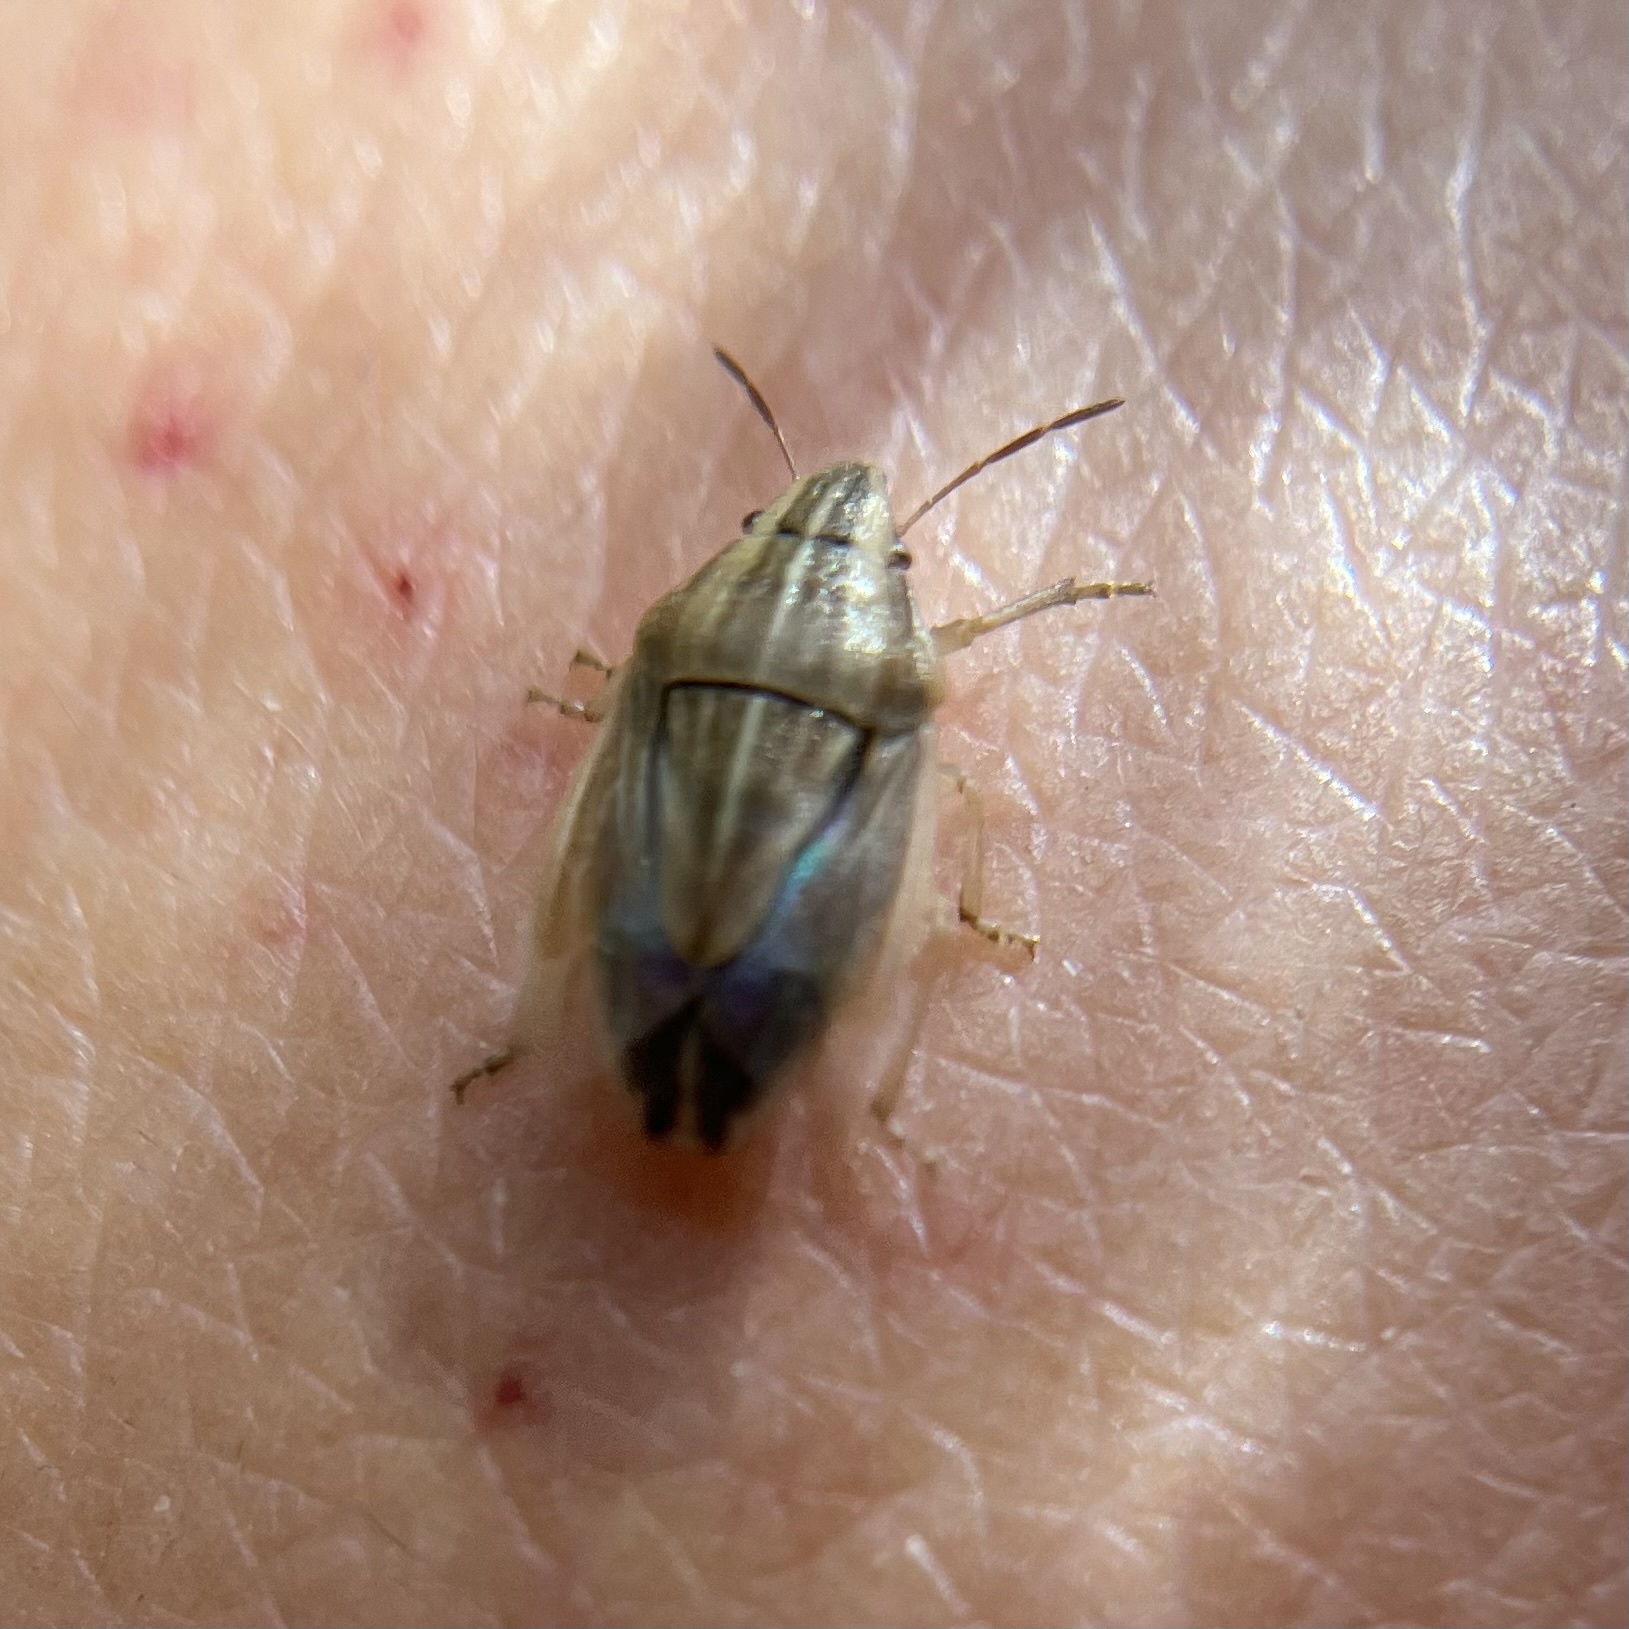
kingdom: Animalia
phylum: Arthropoda
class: Insecta
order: Hemiptera
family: Pentatomidae
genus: Aelia
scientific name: Aelia acuminata
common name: Bishop's mitre
